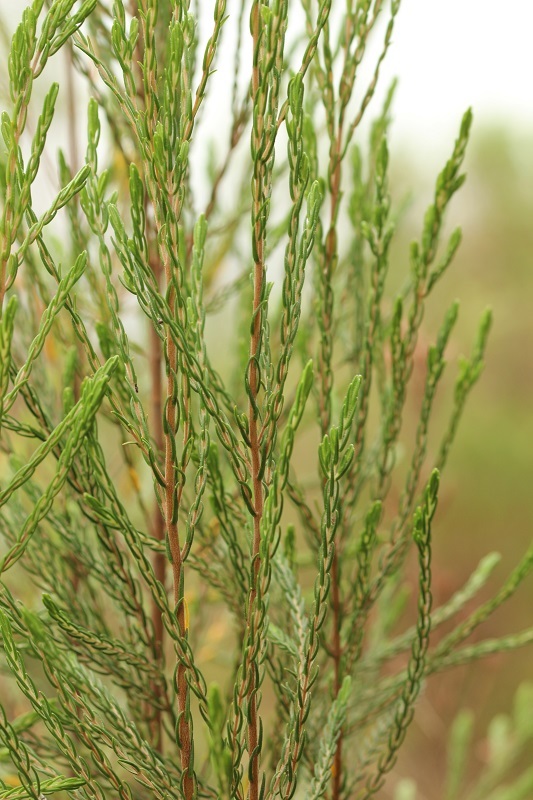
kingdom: Plantae
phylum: Tracheophyta
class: Magnoliopsida
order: Malvales
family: Thymelaeaceae
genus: Passerina
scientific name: Passerina corymbosa
